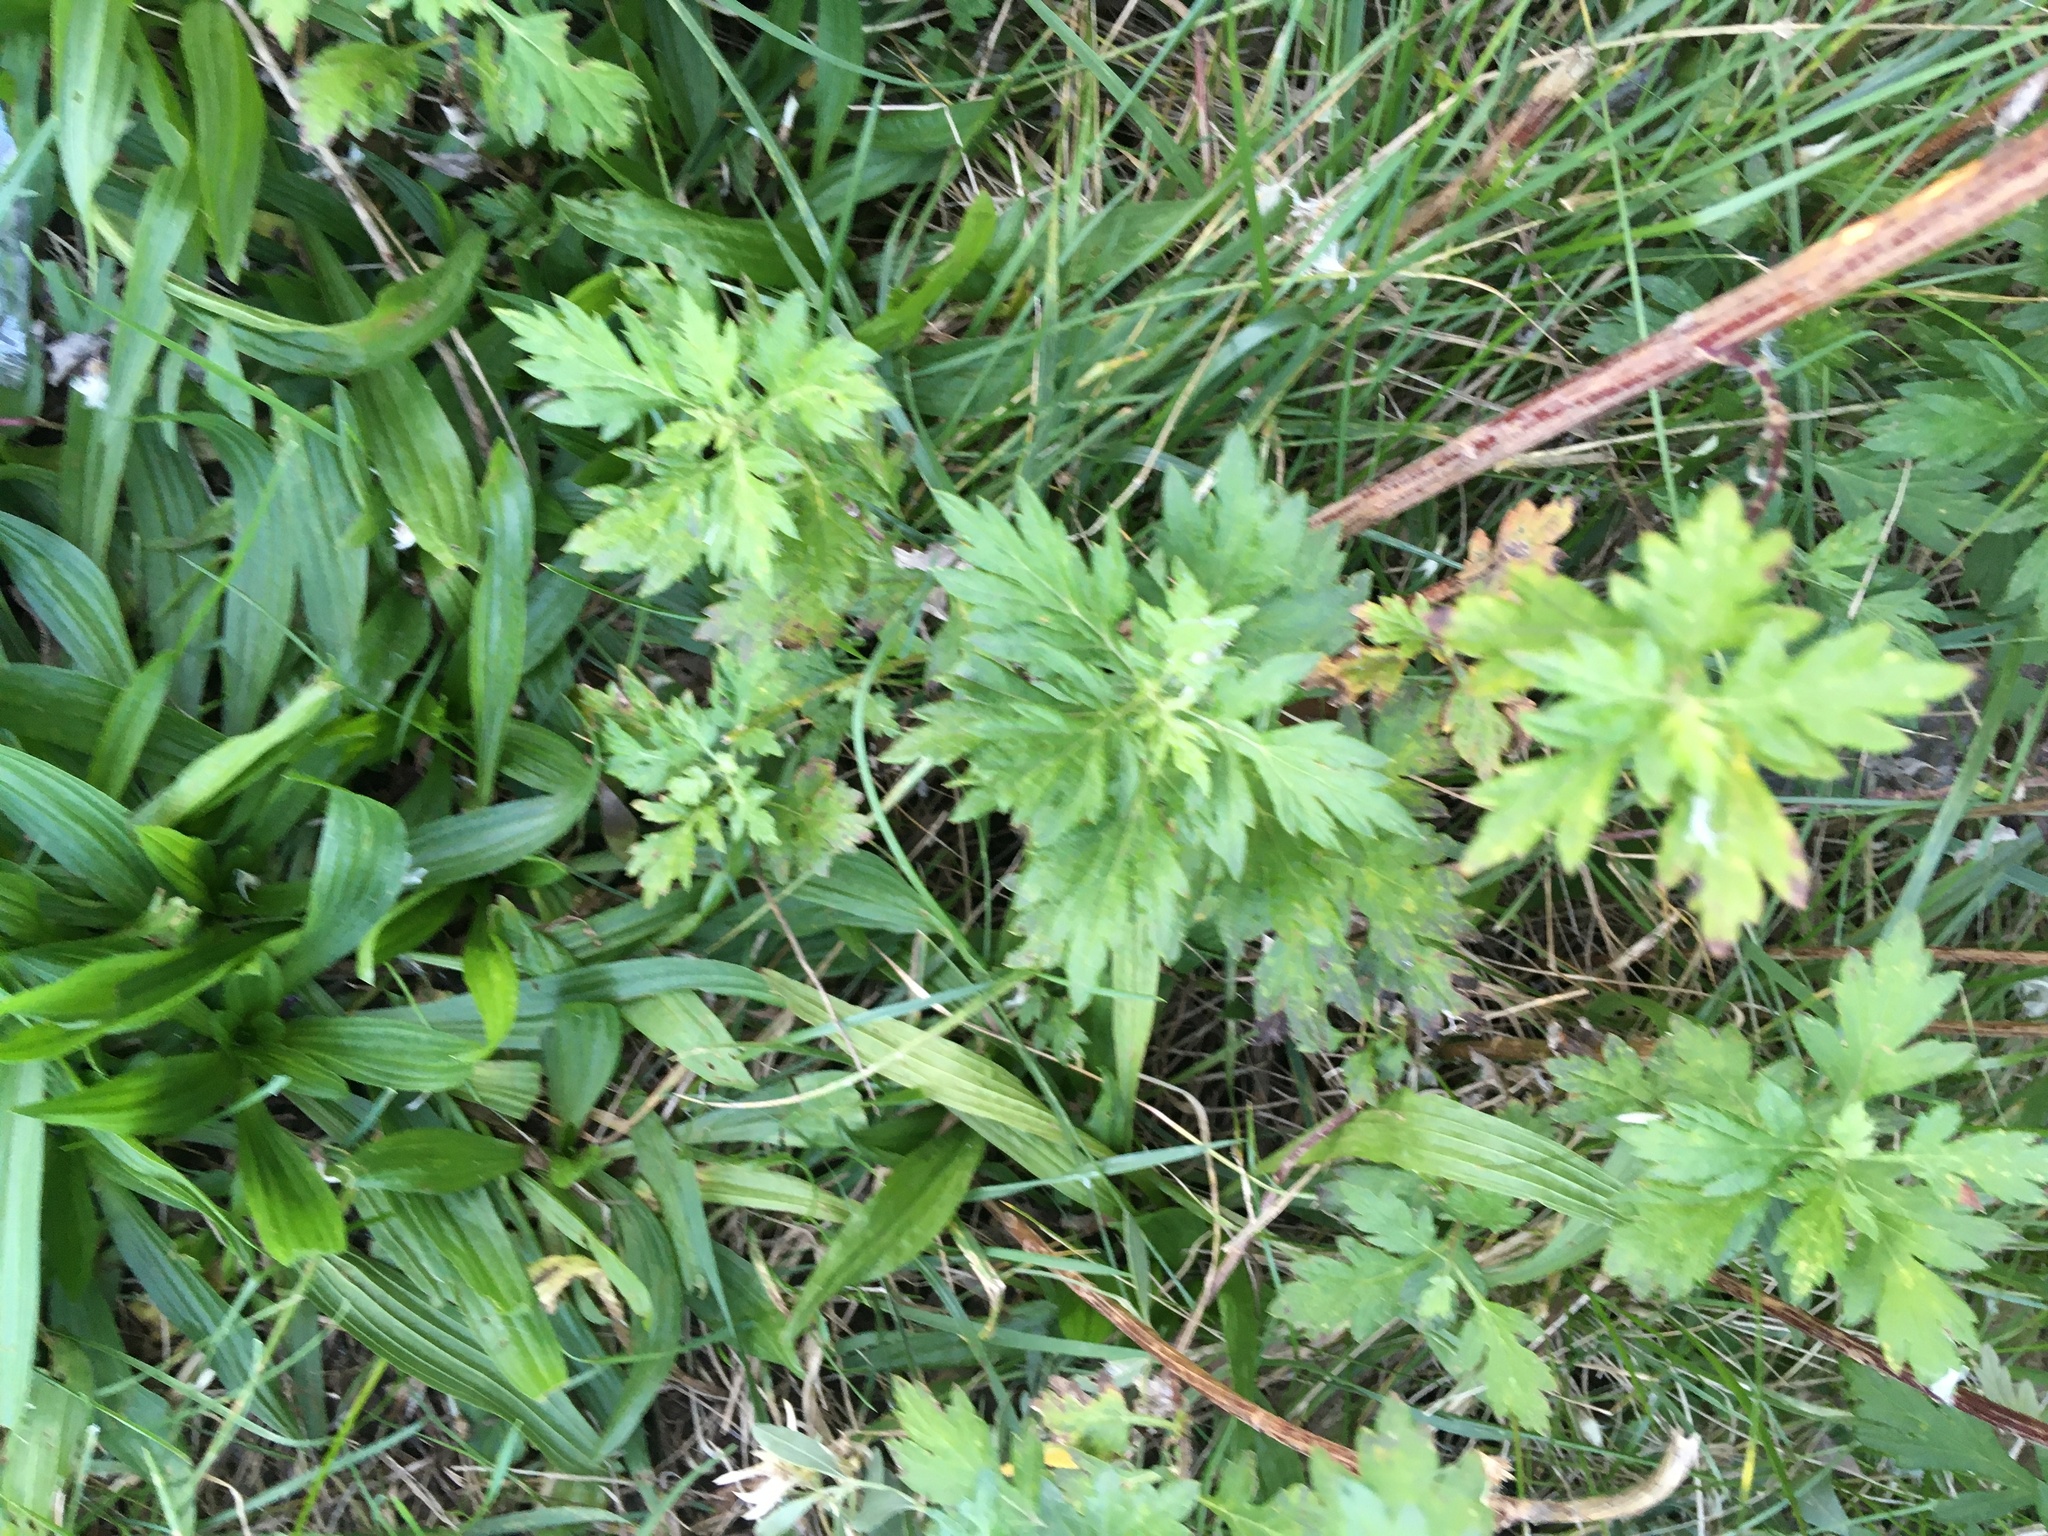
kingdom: Plantae
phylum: Tracheophyta
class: Magnoliopsida
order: Asterales
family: Asteraceae
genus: Artemisia
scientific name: Artemisia vulgaris
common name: Mugwort
